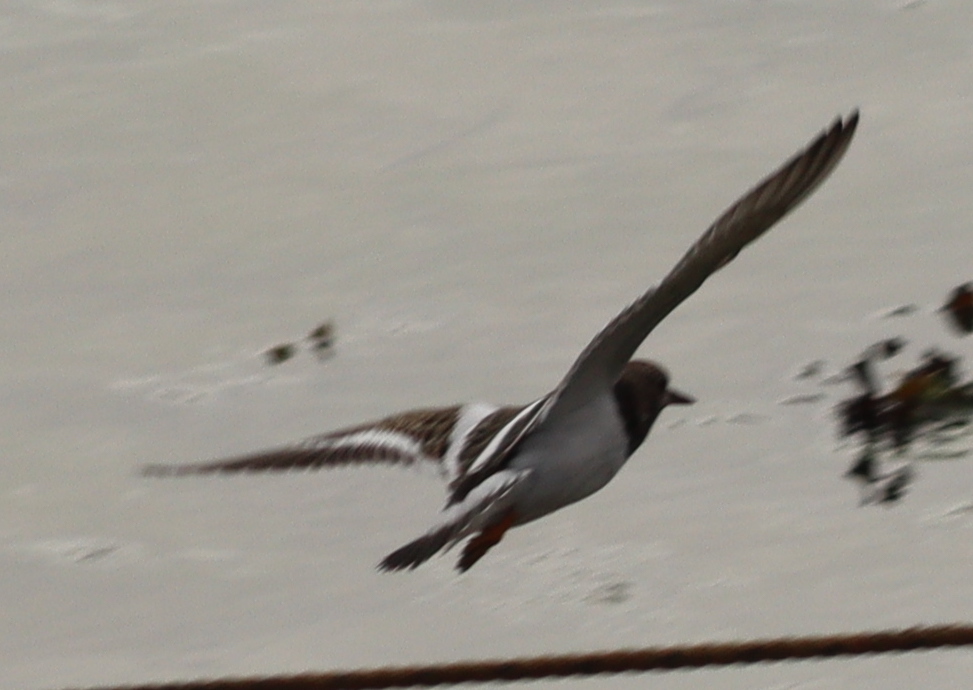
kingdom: Animalia
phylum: Chordata
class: Aves
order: Charadriiformes
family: Scolopacidae
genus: Arenaria
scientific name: Arenaria interpres
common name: Ruddy turnstone
